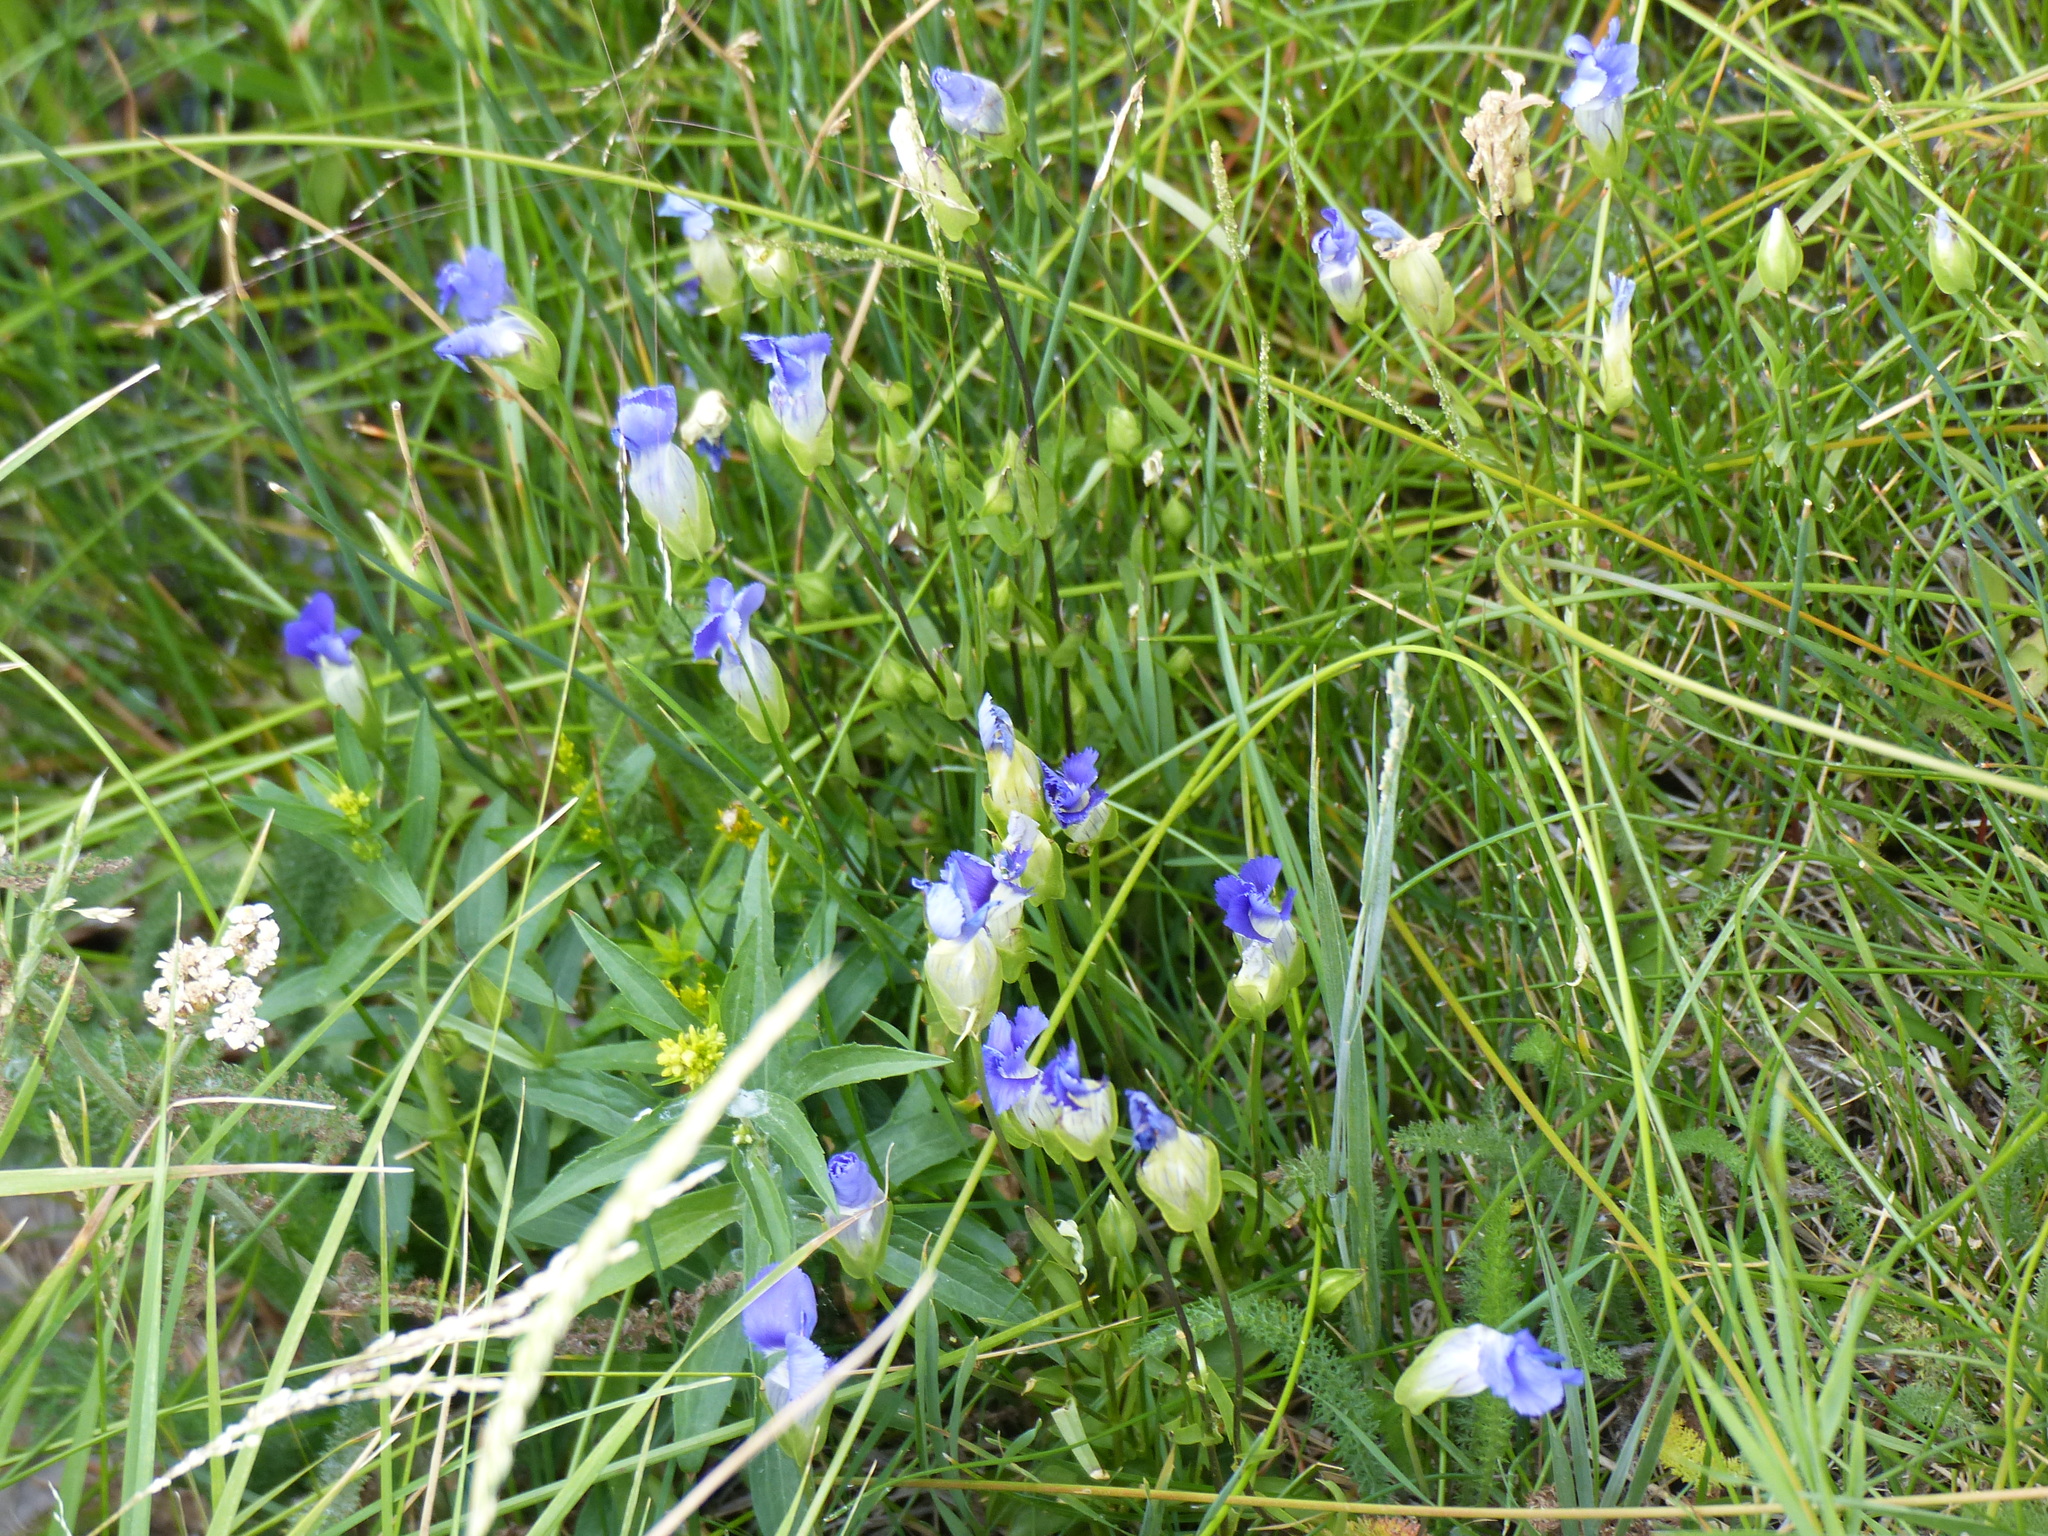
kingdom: Plantae
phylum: Tracheophyta
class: Magnoliopsida
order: Gentianales
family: Gentianaceae
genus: Gentianopsis
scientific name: Gentianopsis thermalis
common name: Rocky mountain fringed-gentian
